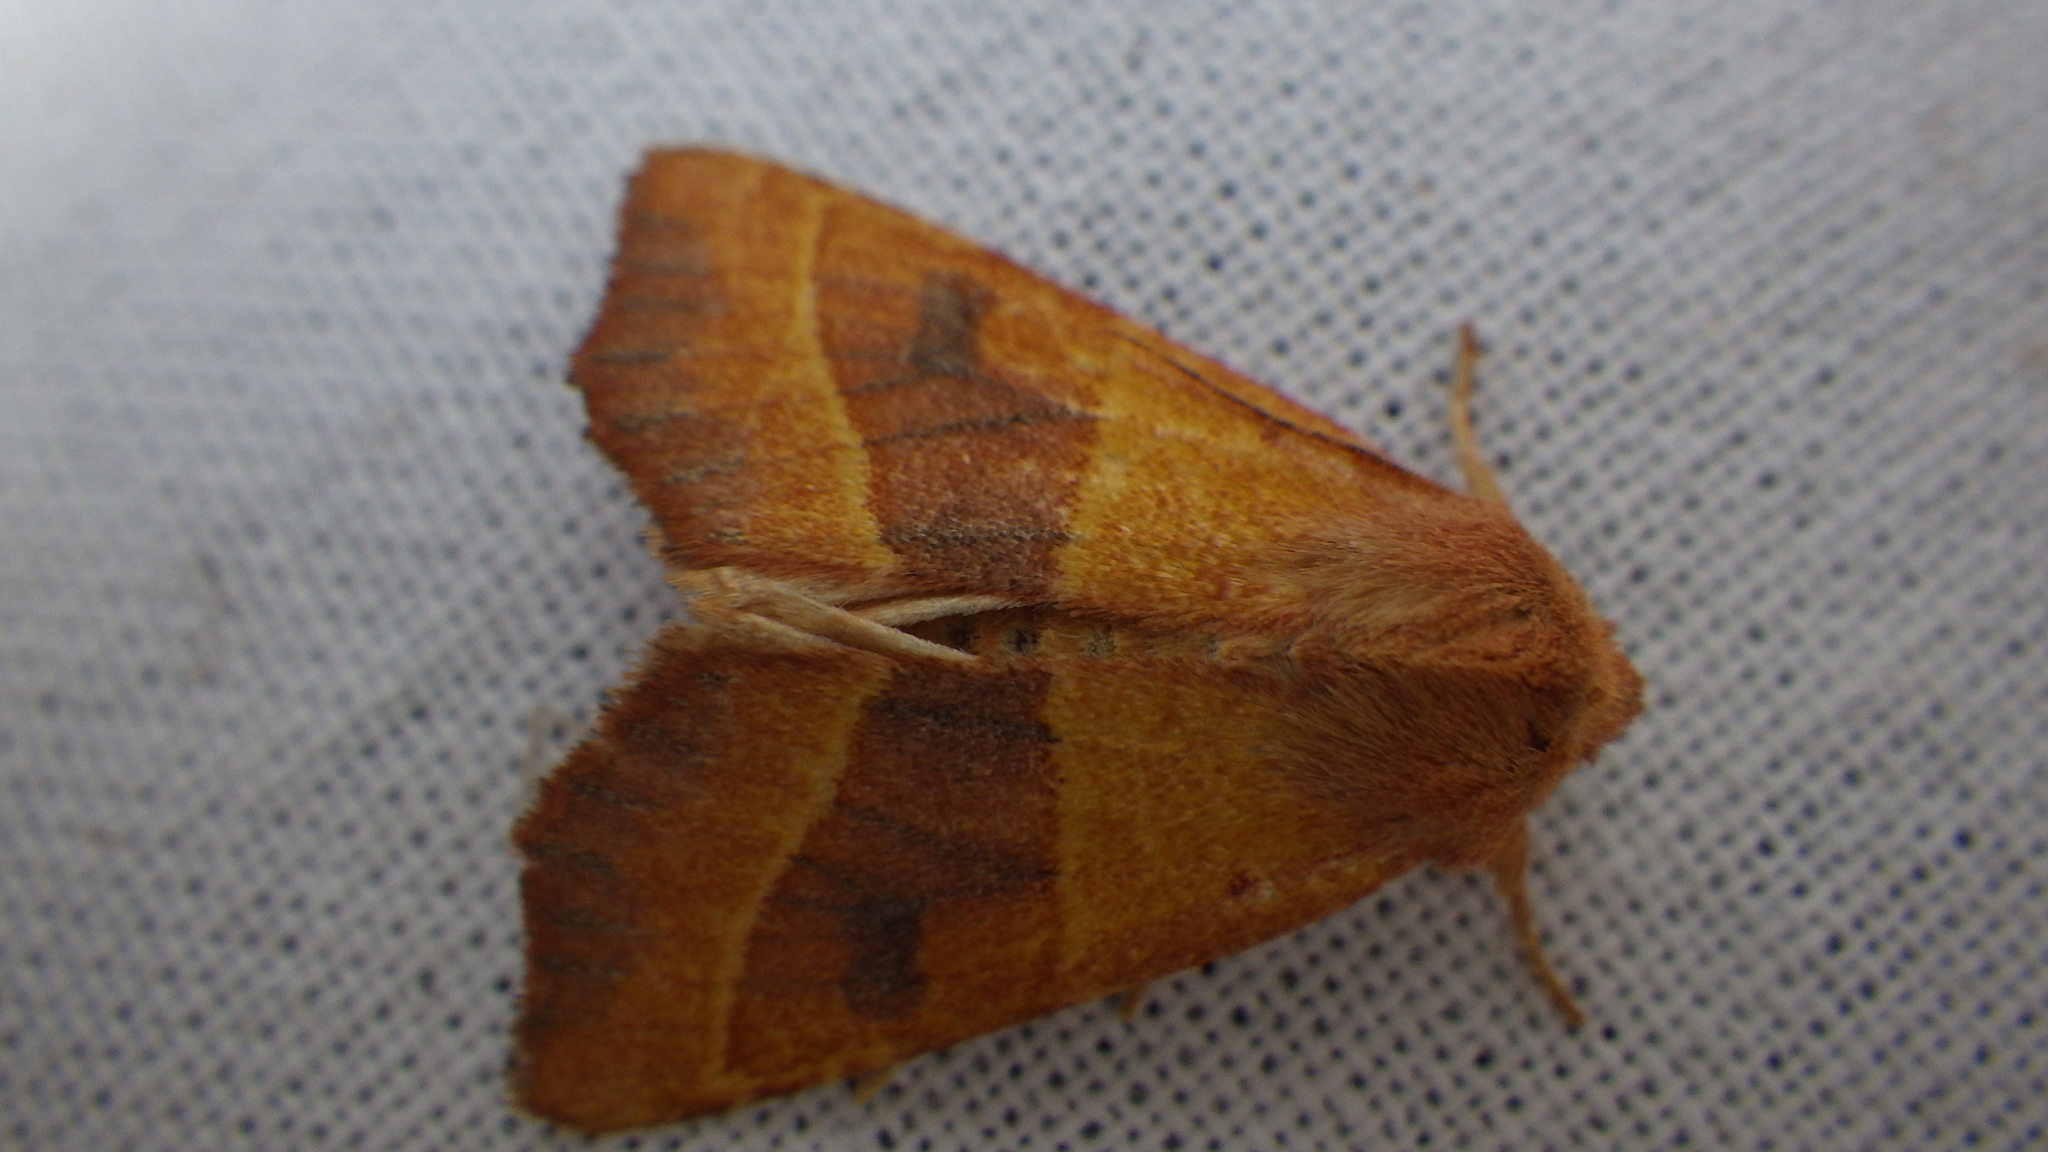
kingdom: Animalia
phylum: Arthropoda
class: Insecta
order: Lepidoptera
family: Noctuidae
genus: Atethmia
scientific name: Atethmia centrago
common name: Centre-barred sallow
